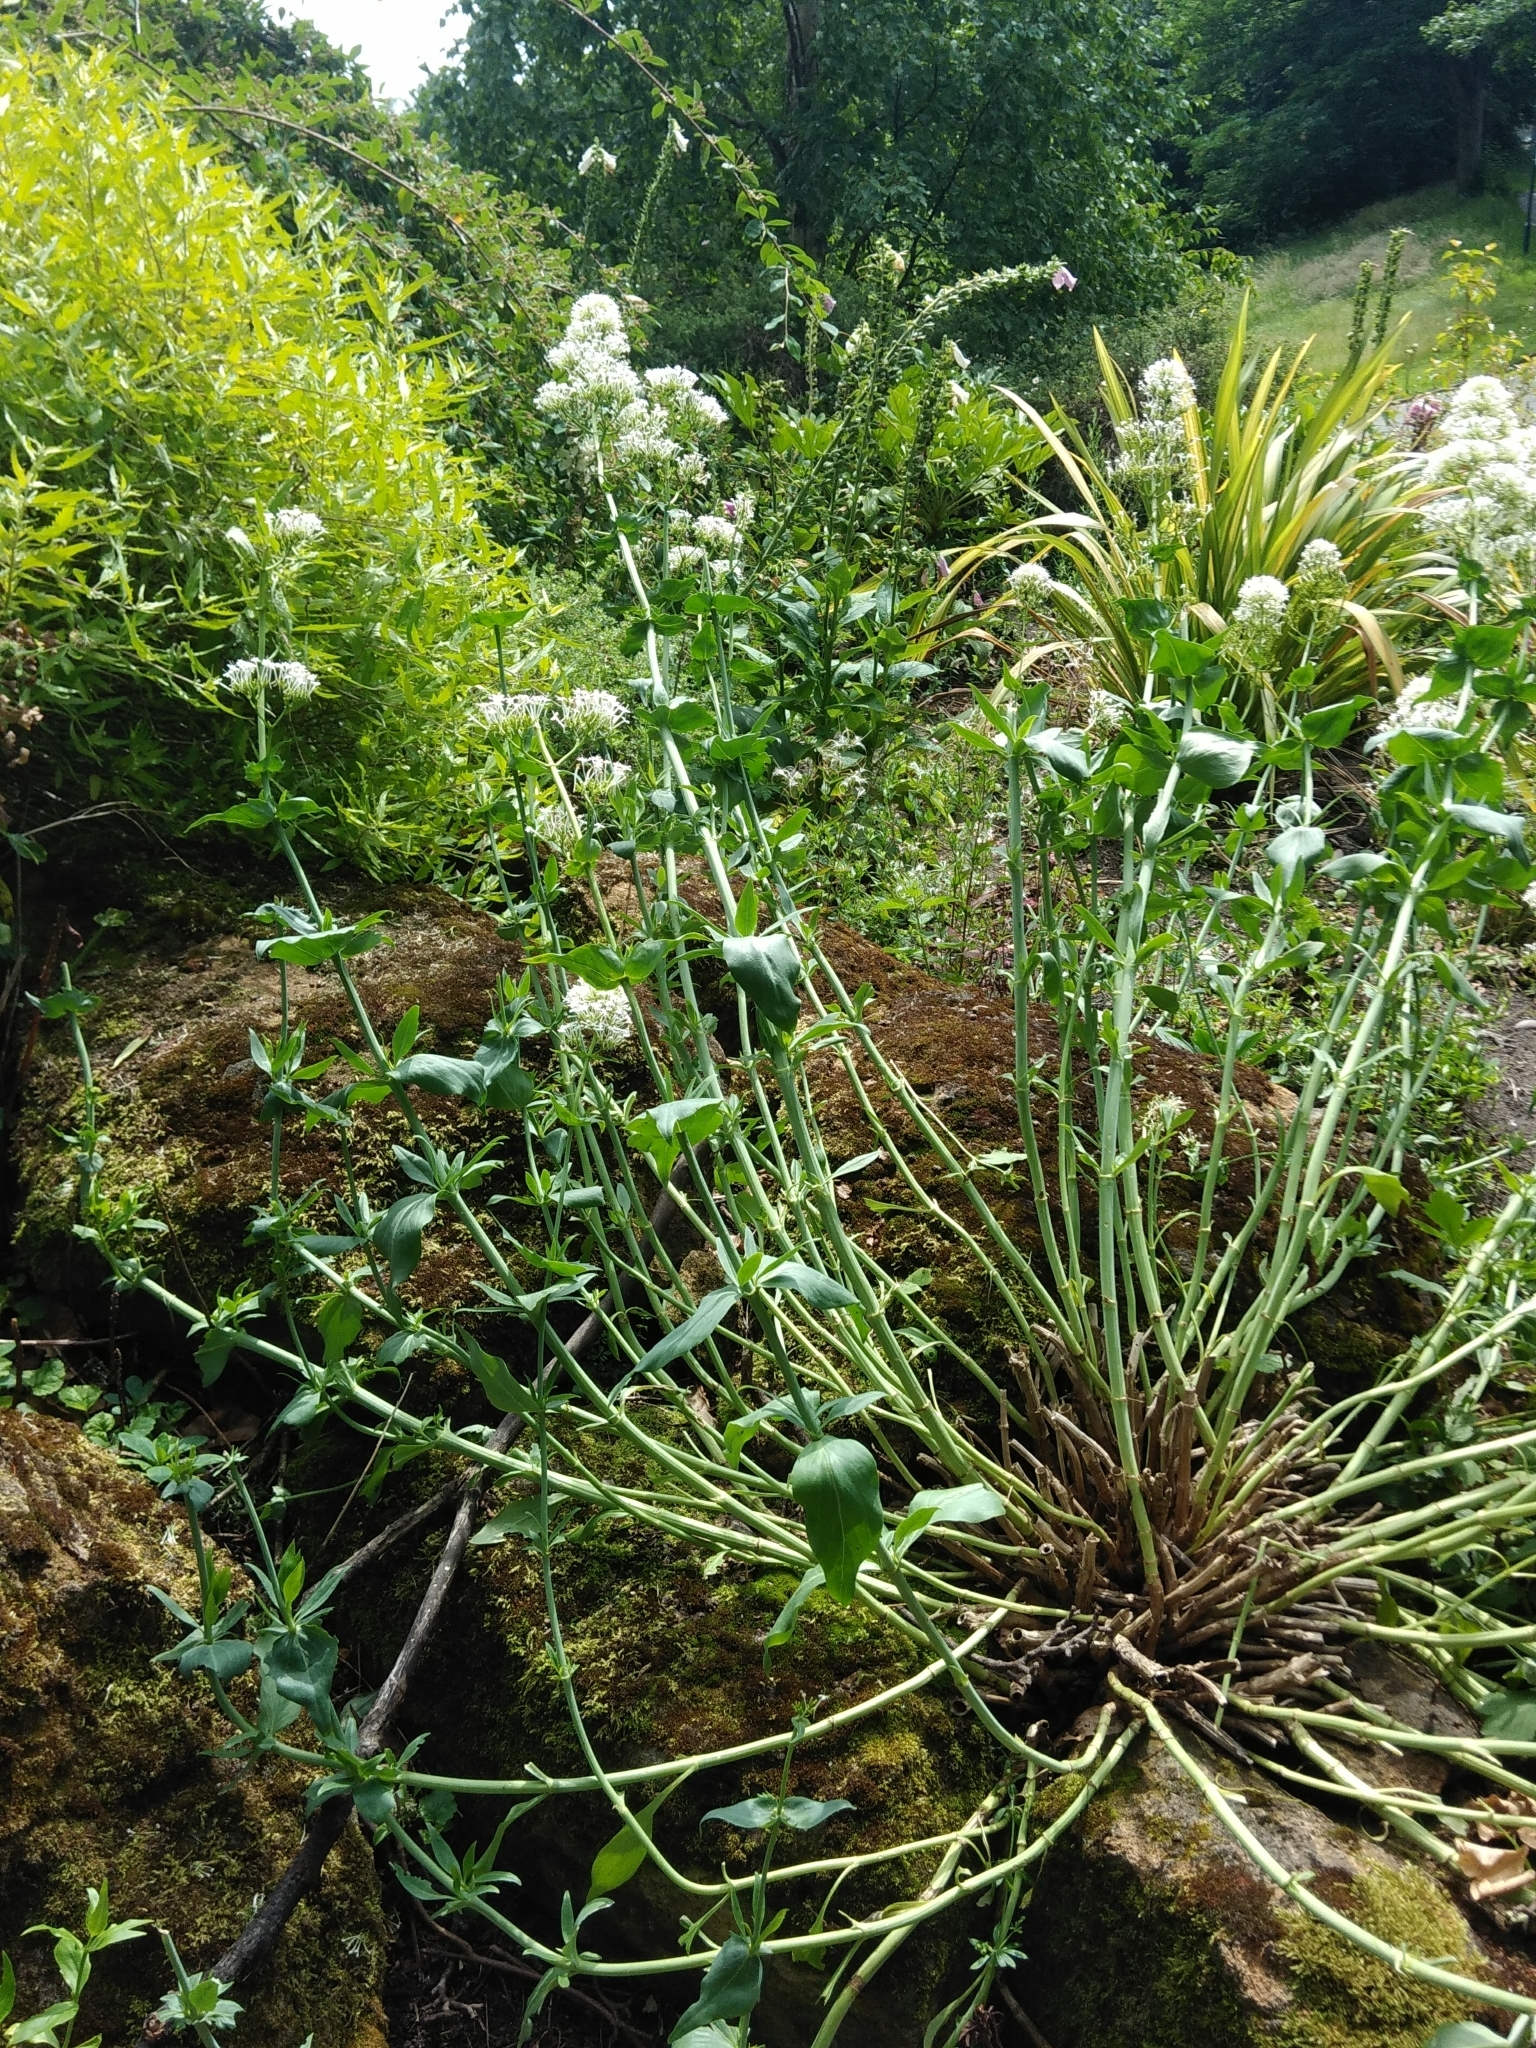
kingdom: Plantae
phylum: Tracheophyta
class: Magnoliopsida
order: Dipsacales
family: Caprifoliaceae
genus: Centranthus
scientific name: Centranthus ruber
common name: Red valerian
